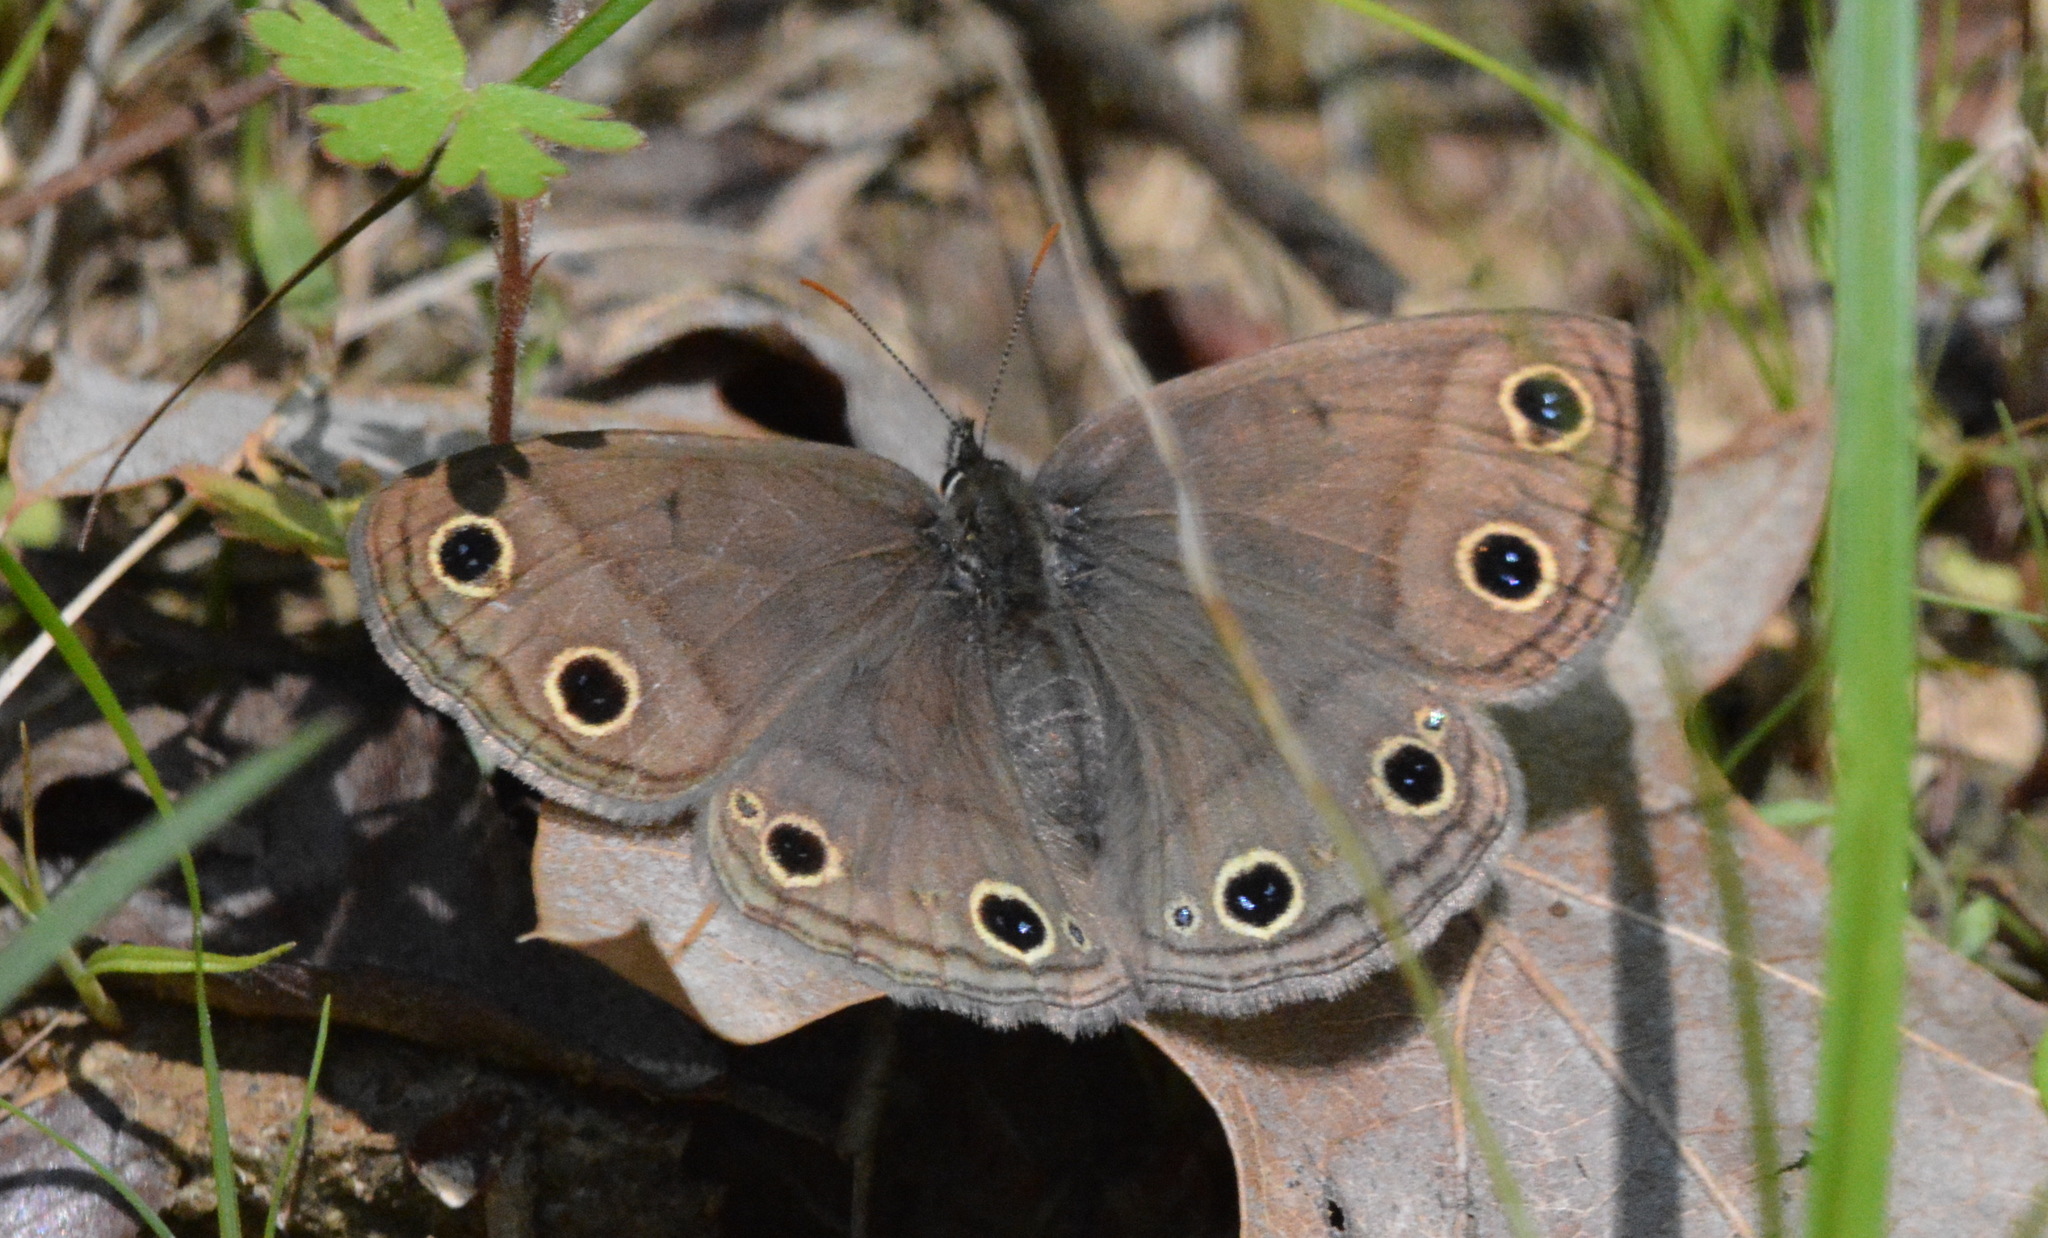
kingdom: Animalia
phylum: Arthropoda
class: Insecta
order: Lepidoptera
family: Nymphalidae
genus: Euptychia
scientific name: Euptychia cymela
